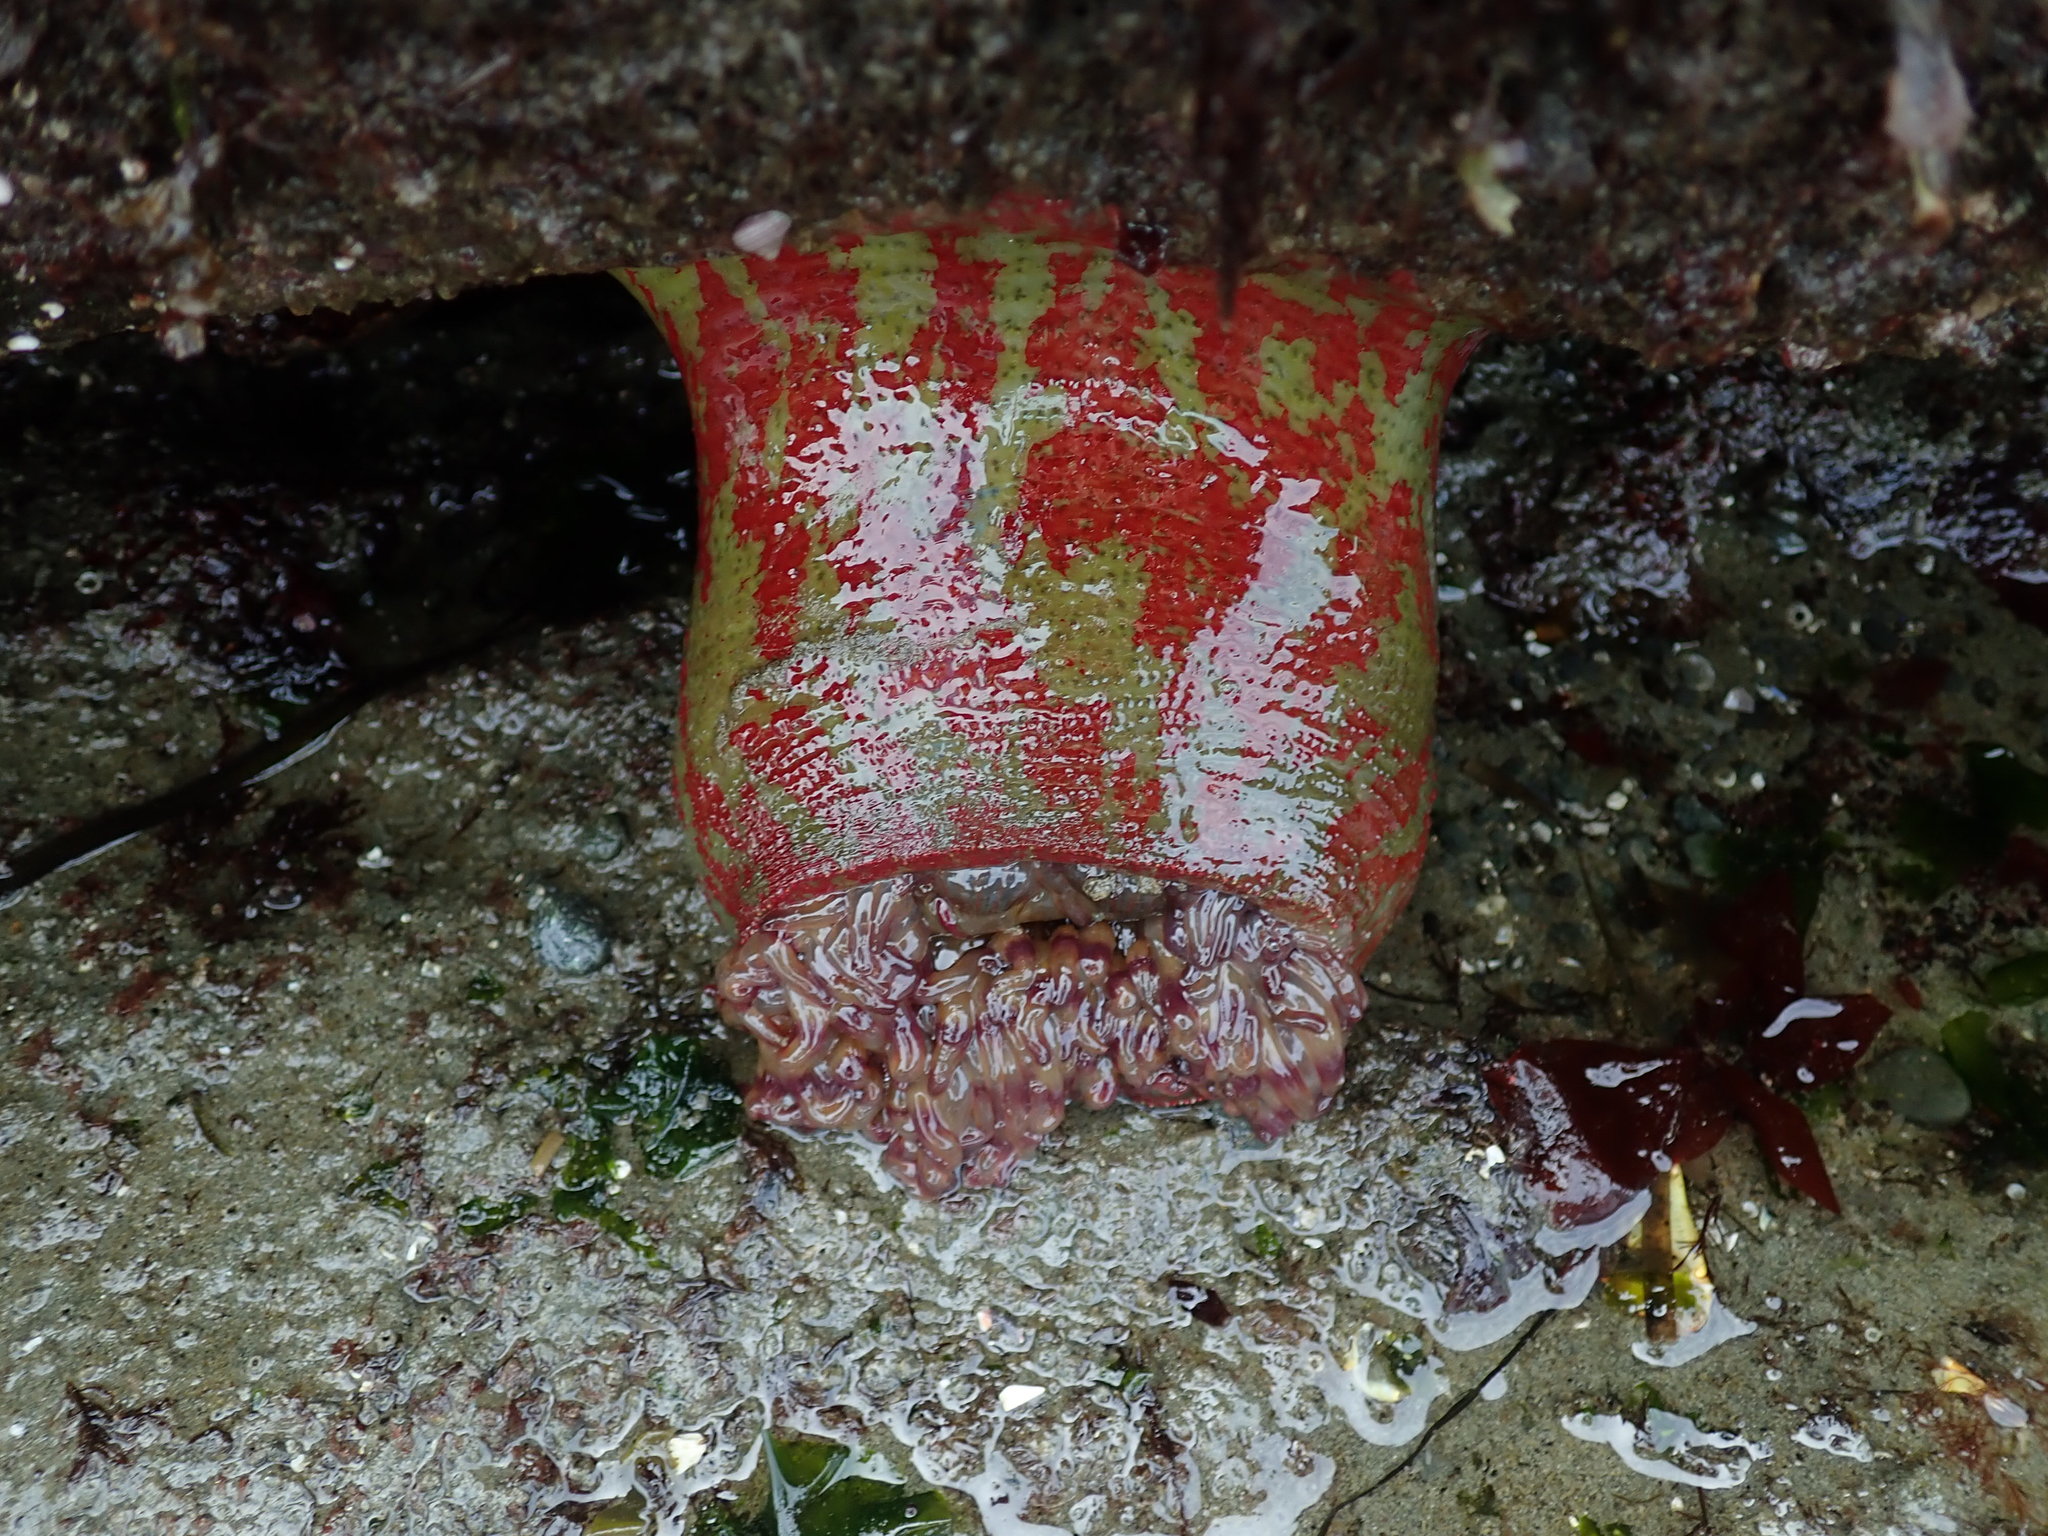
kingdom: Animalia
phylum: Cnidaria
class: Anthozoa
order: Actiniaria
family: Actiniidae
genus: Urticina
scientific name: Urticina grebelnyi
